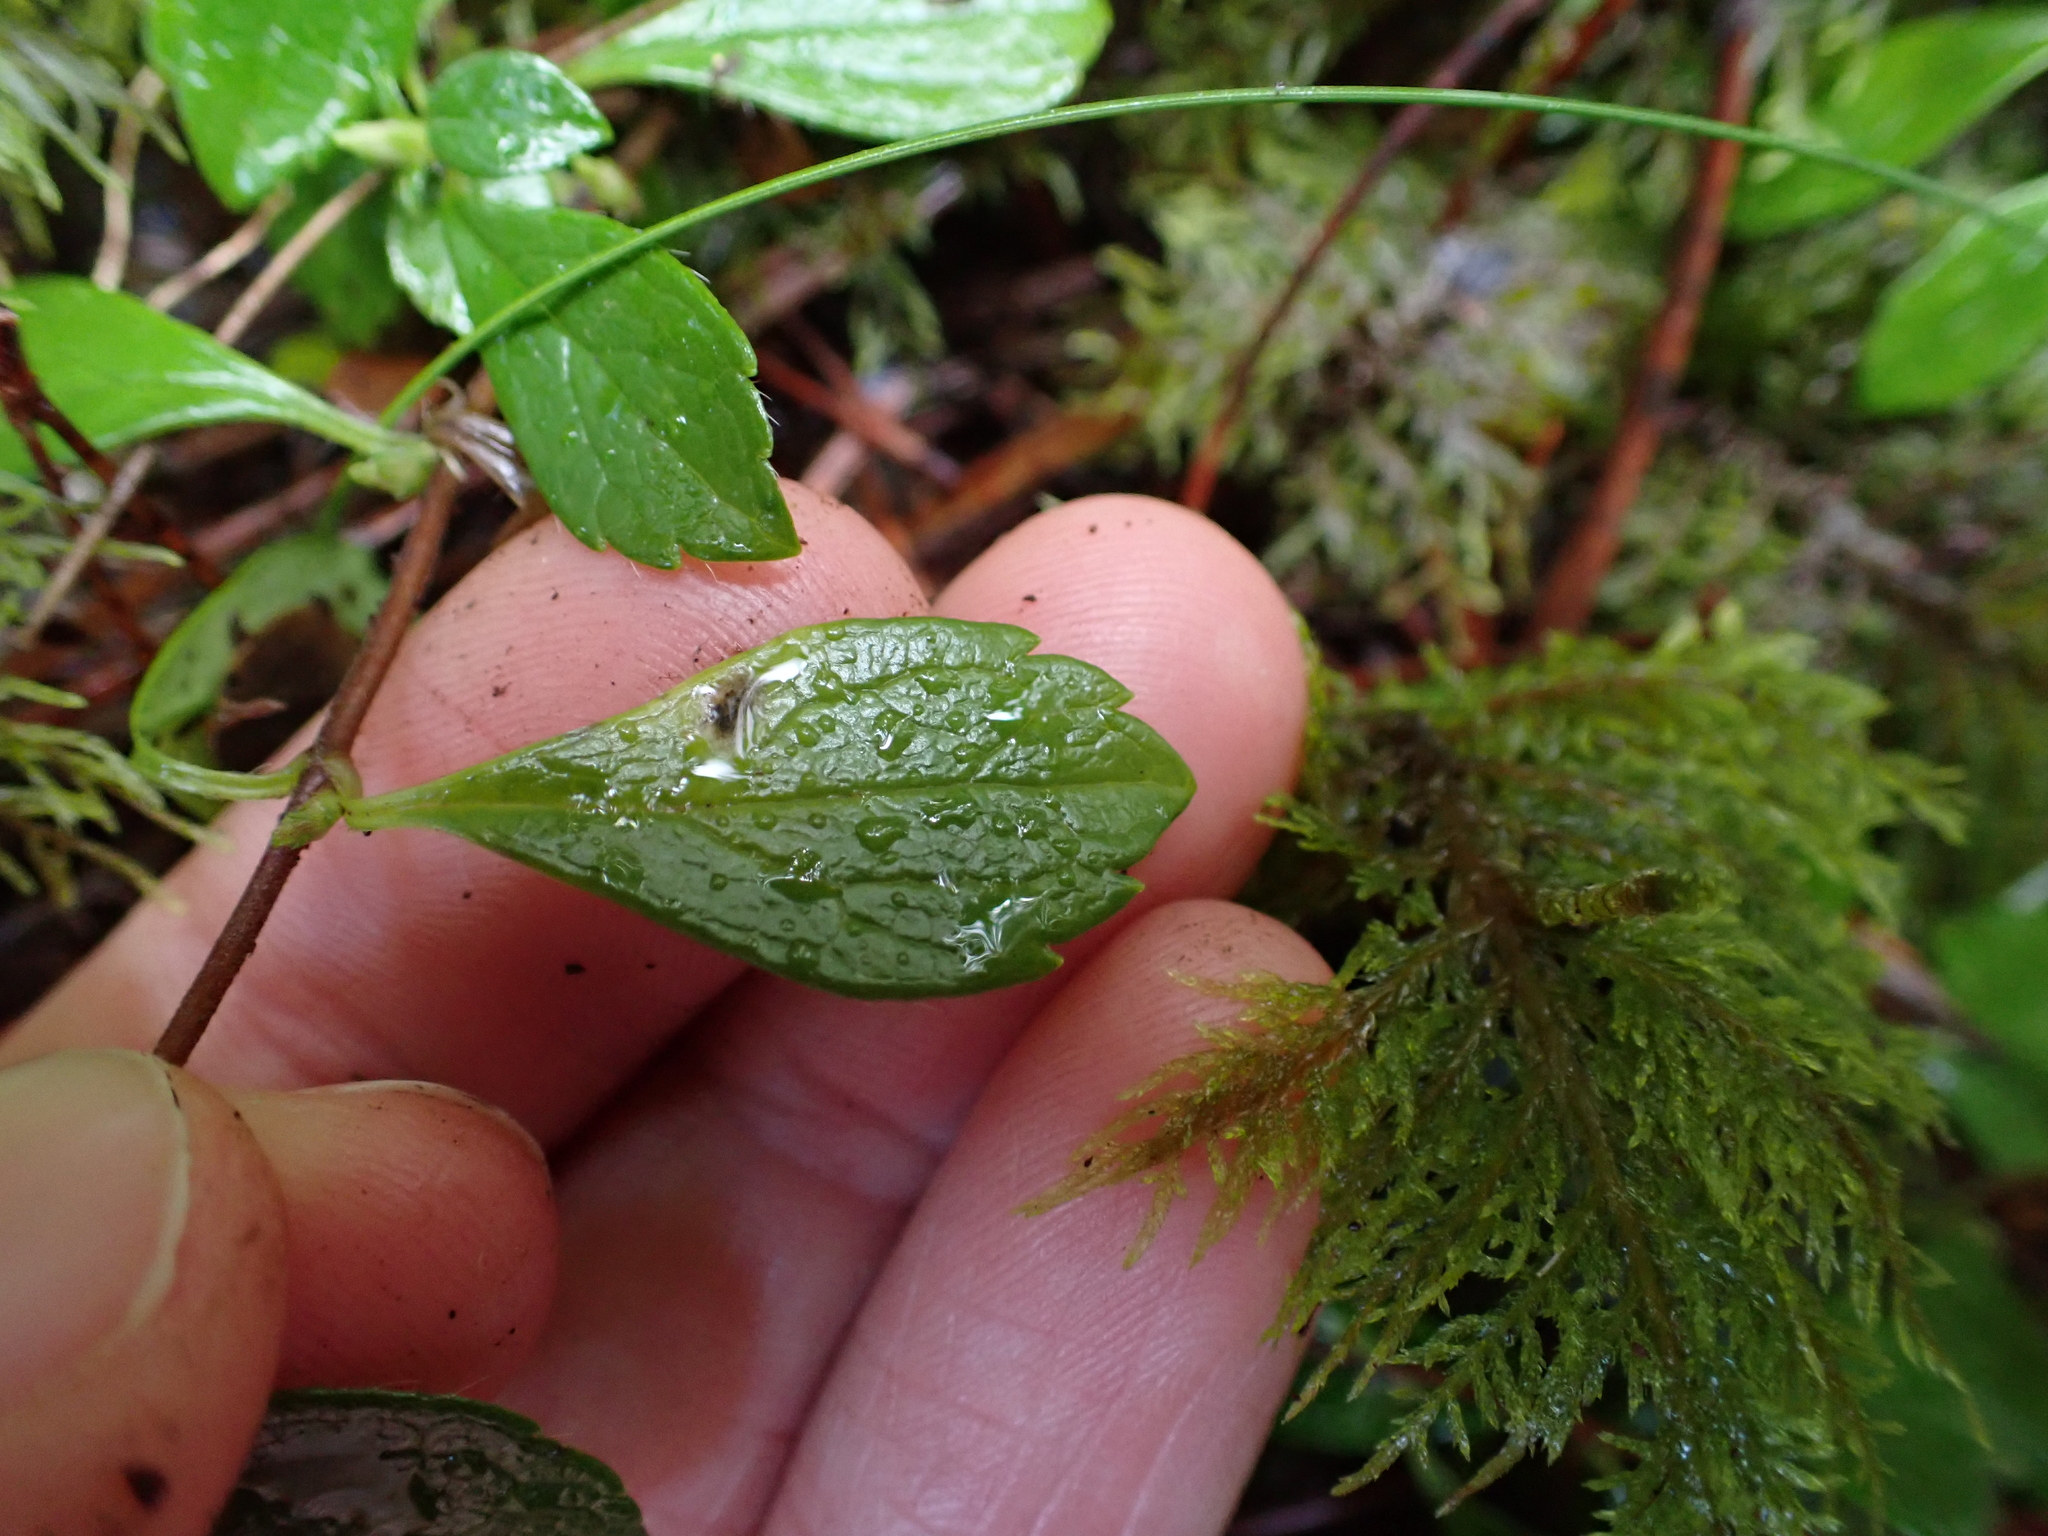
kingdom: Plantae
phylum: Tracheophyta
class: Magnoliopsida
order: Dipsacales
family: Caprifoliaceae
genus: Linnaea
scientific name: Linnaea borealis
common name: Twinflower
